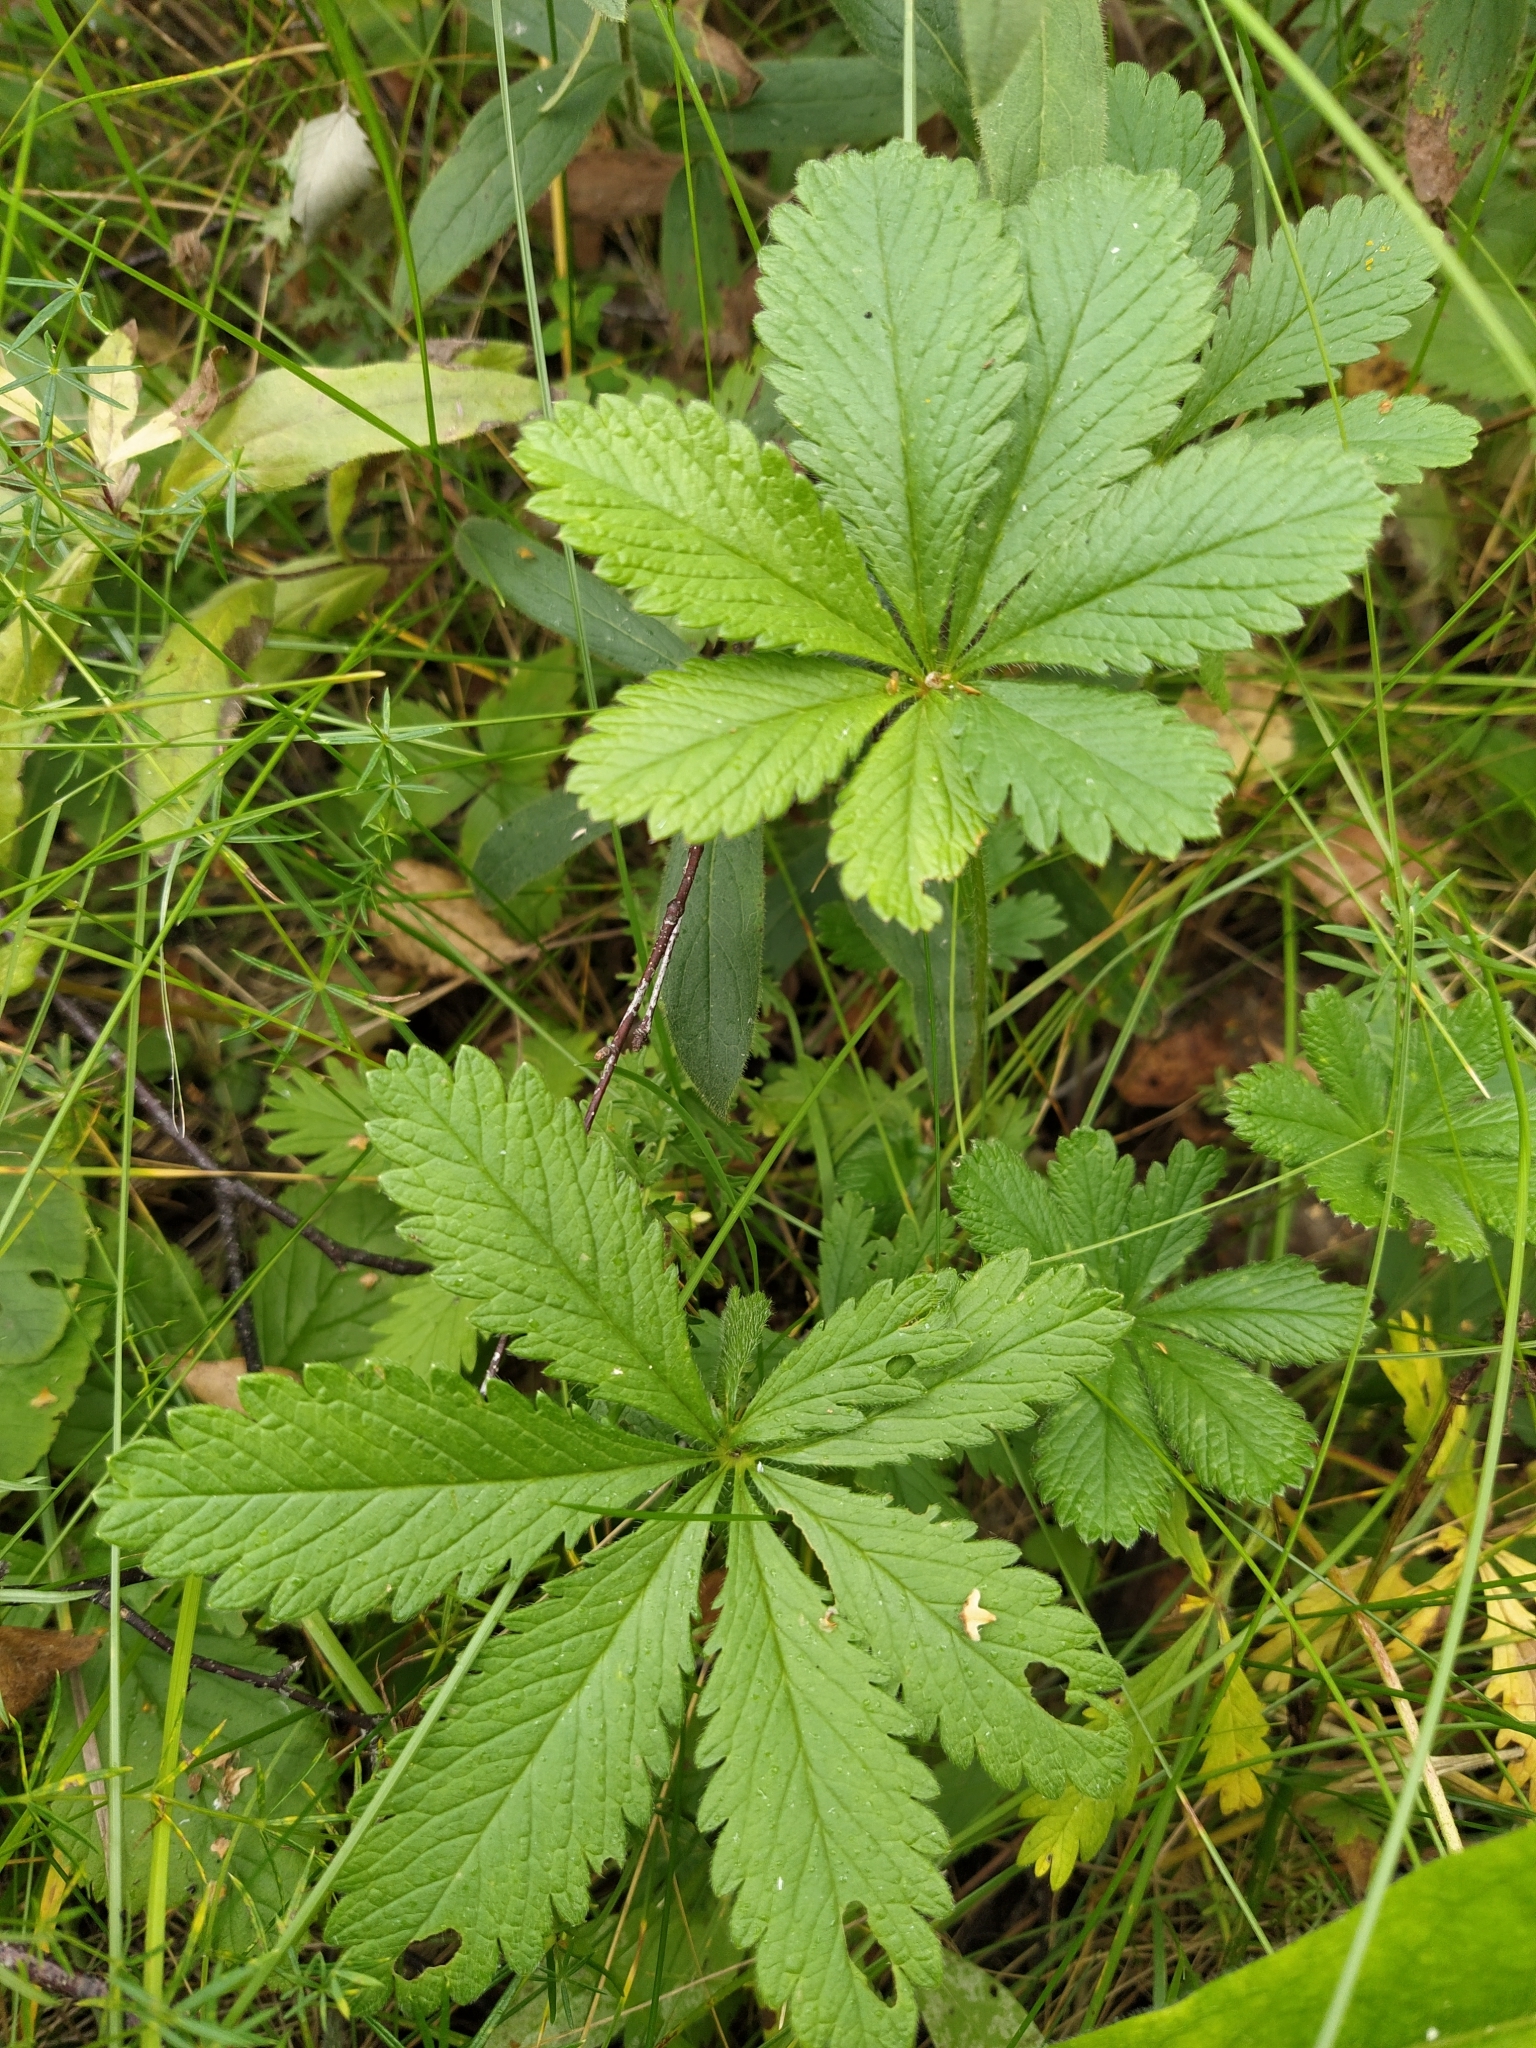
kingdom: Plantae
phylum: Tracheophyta
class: Magnoliopsida
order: Rosales
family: Rosaceae
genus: Potentilla
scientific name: Potentilla thuringiaca
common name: European cinquefoil
